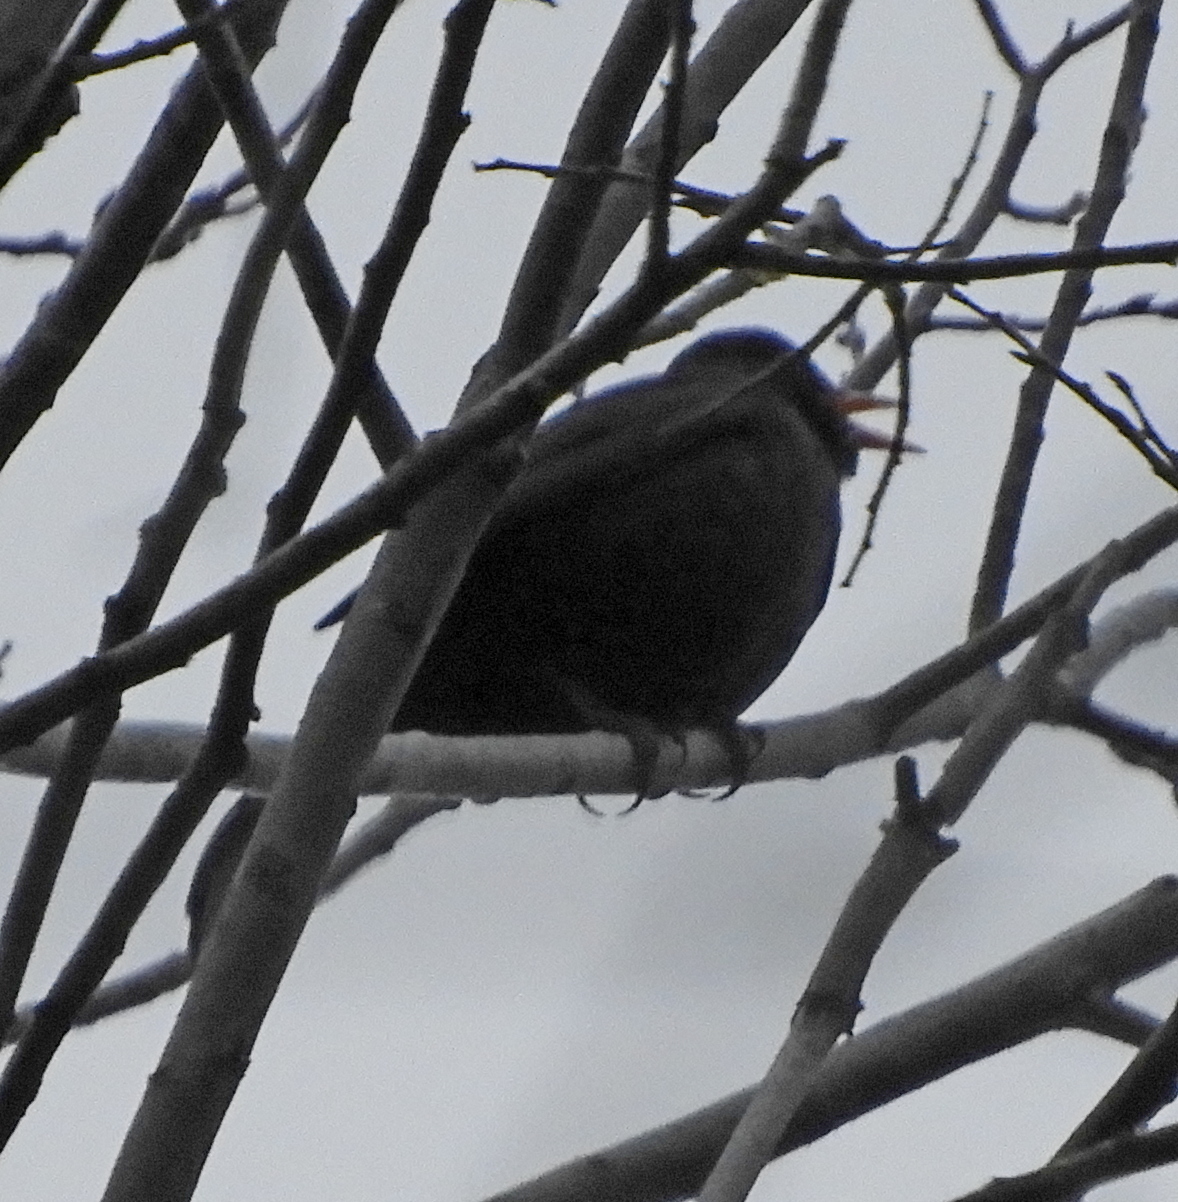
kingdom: Animalia
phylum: Chordata
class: Aves
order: Passeriformes
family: Turdidae
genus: Turdus
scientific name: Turdus merula
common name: Common blackbird
